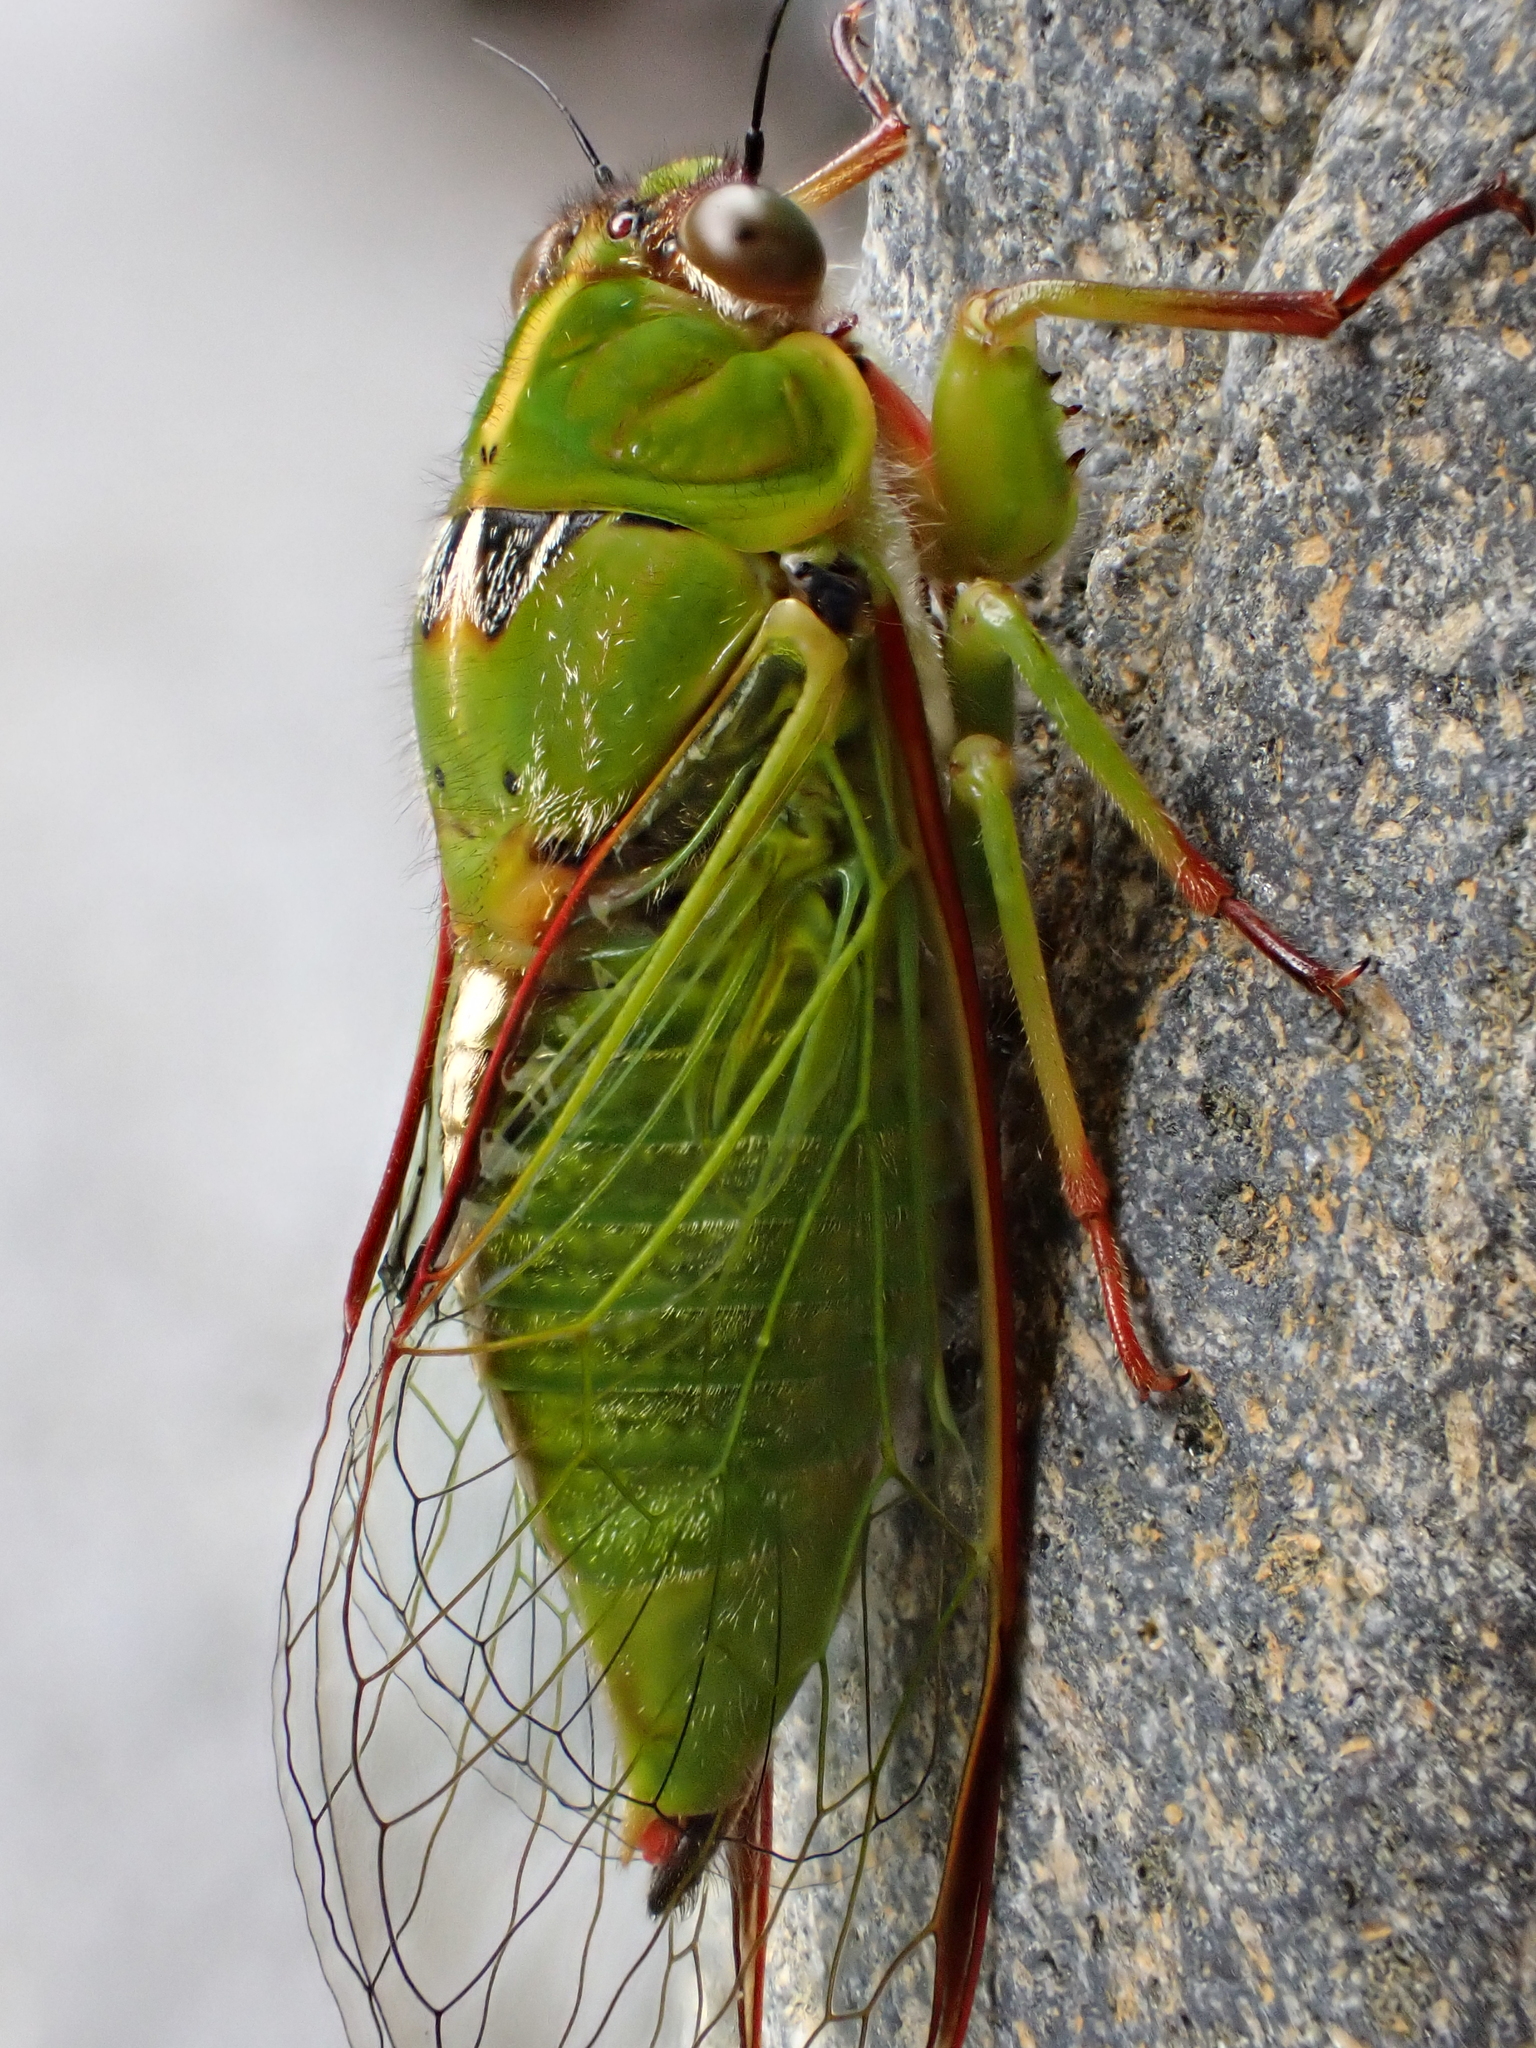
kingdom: Animalia
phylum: Arthropoda
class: Insecta
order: Hemiptera
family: Cicadidae
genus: Kikihia
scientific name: Kikihia cutora
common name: Northern snoring cicada
